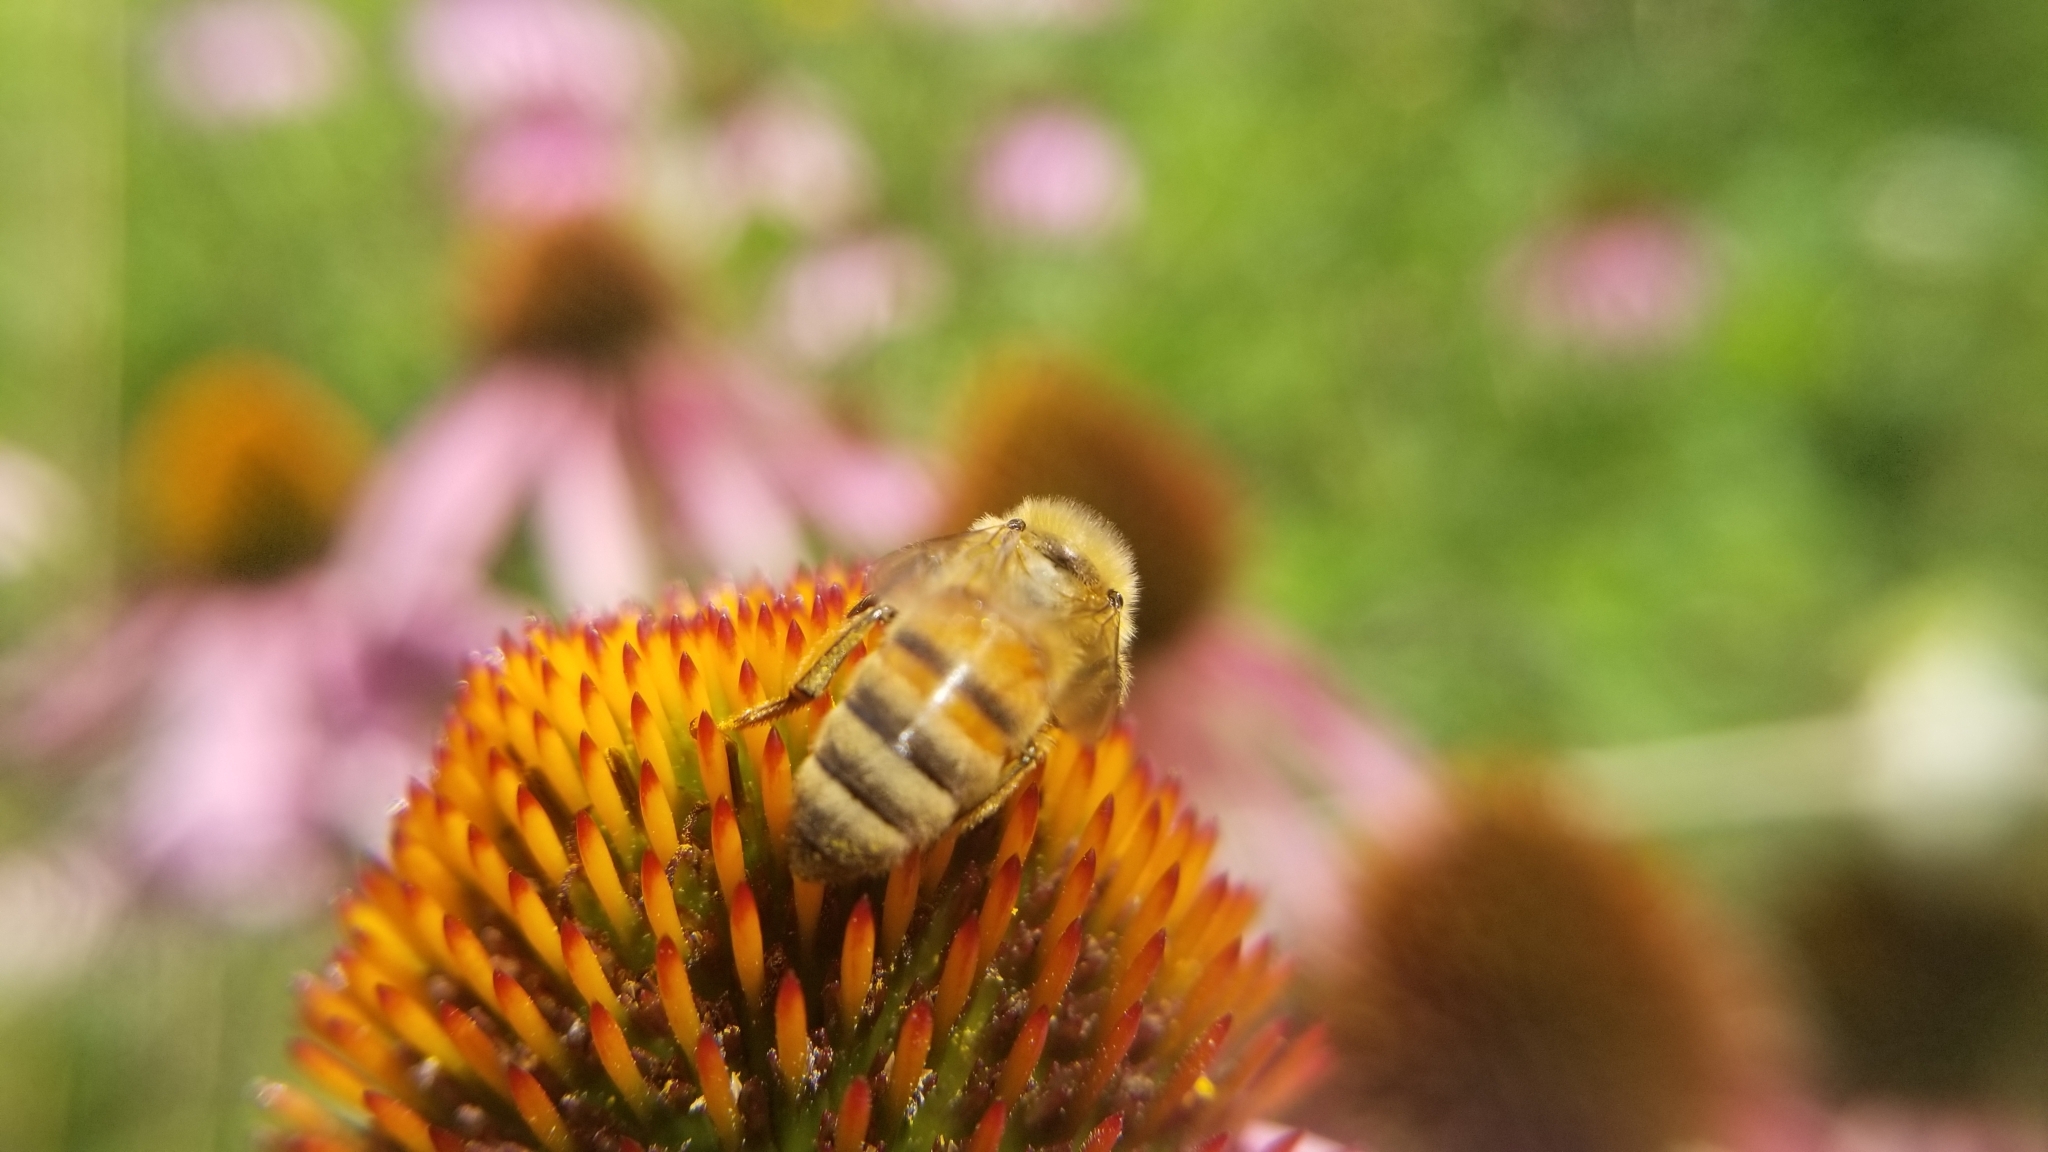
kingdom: Animalia
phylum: Arthropoda
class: Insecta
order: Hymenoptera
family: Apidae
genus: Apis
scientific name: Apis mellifera
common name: Honey bee
